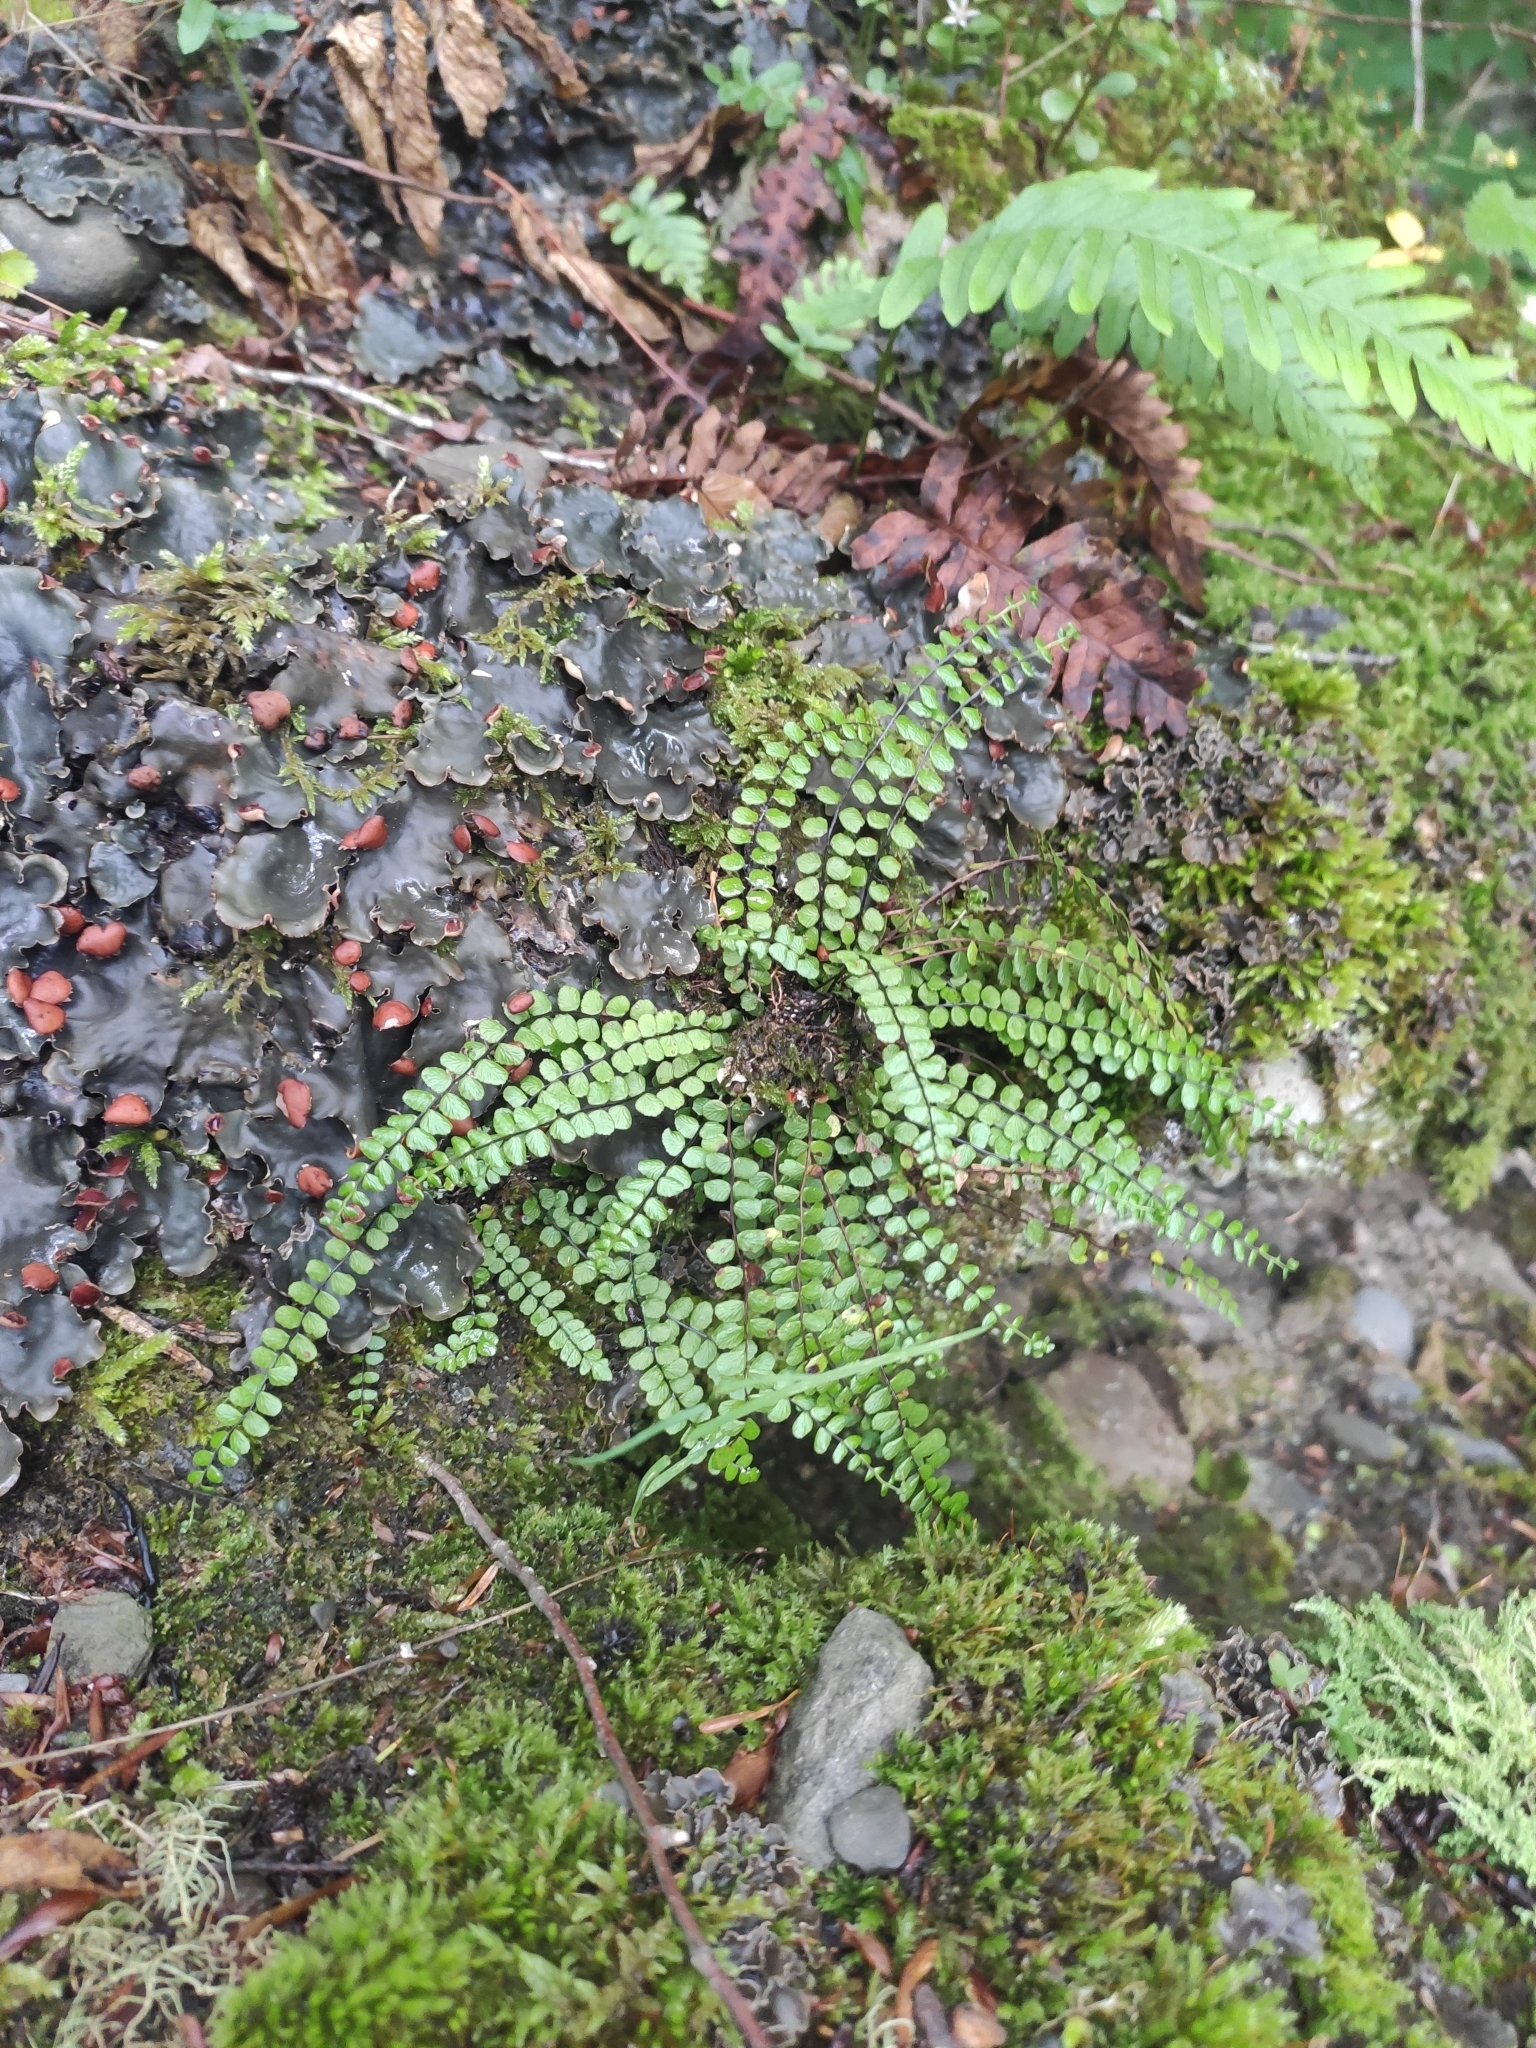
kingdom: Plantae
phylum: Tracheophyta
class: Polypodiopsida
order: Polypodiales
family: Aspleniaceae
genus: Asplenium
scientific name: Asplenium trichomanes
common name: Maidenhair spleenwort
